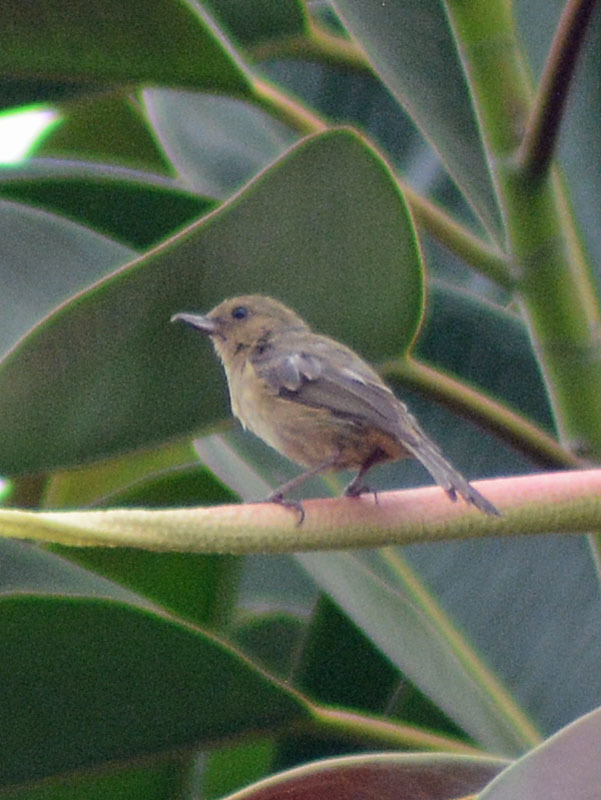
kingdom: Animalia
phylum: Chordata
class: Aves
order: Passeriformes
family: Thraupidae
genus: Diglossa
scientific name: Diglossa baritula
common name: Cinnamon-bellied flowerpiercer
